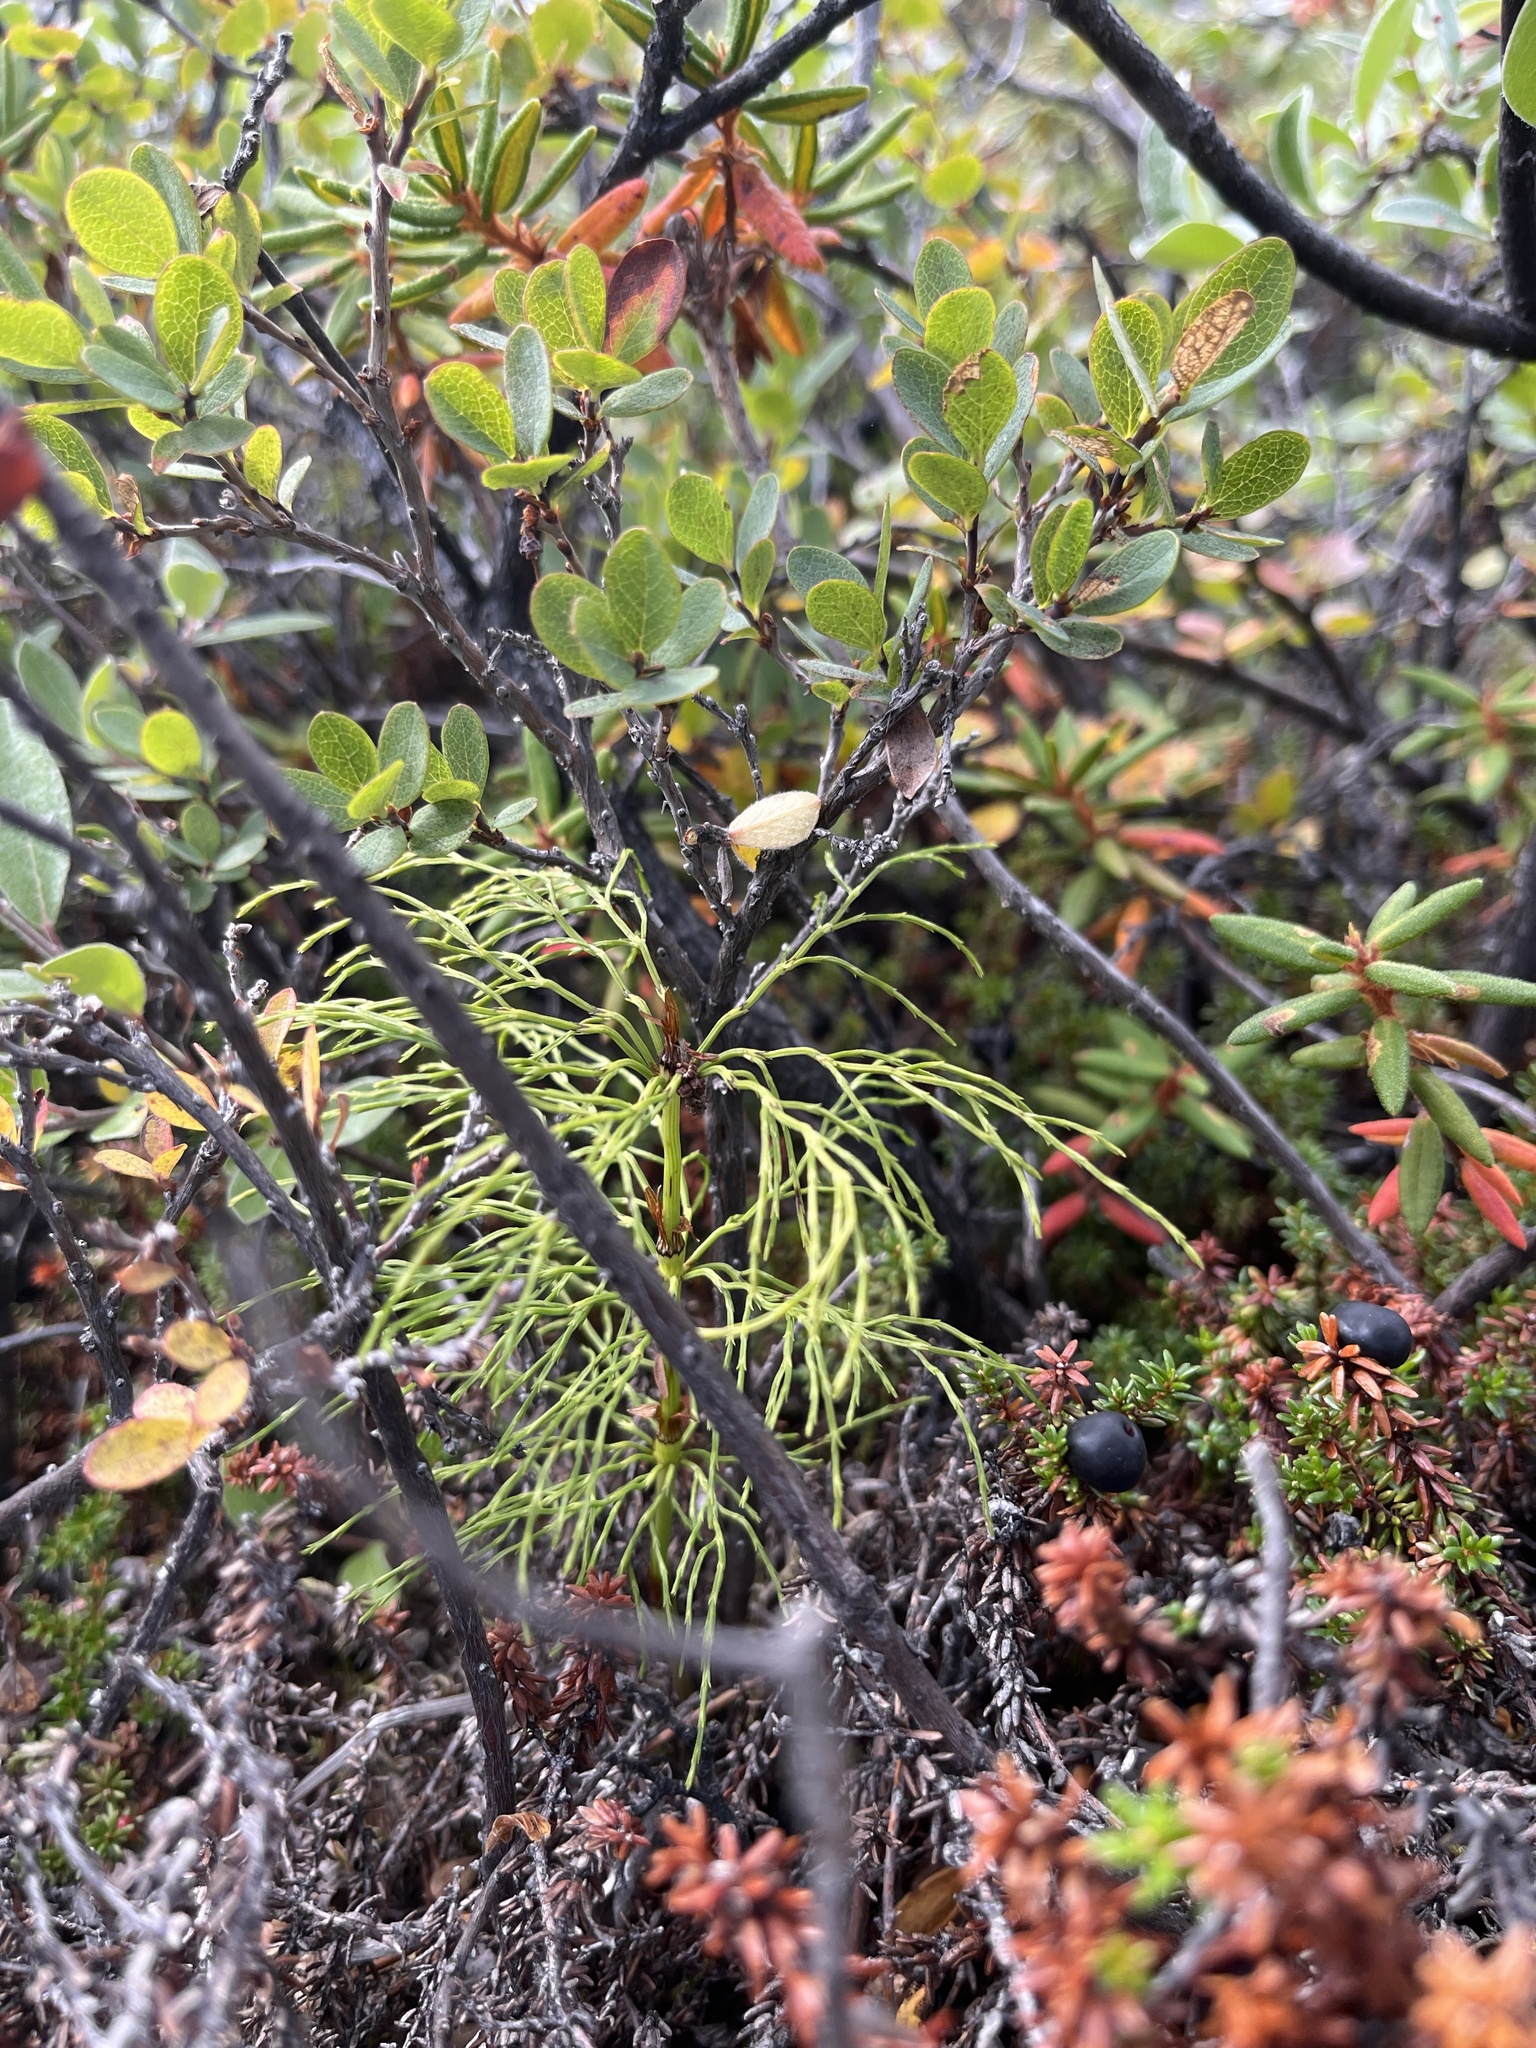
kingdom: Plantae
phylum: Tracheophyta
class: Polypodiopsida
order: Equisetales
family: Equisetaceae
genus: Equisetum
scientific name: Equisetum sylvaticum
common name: Wood horsetail
